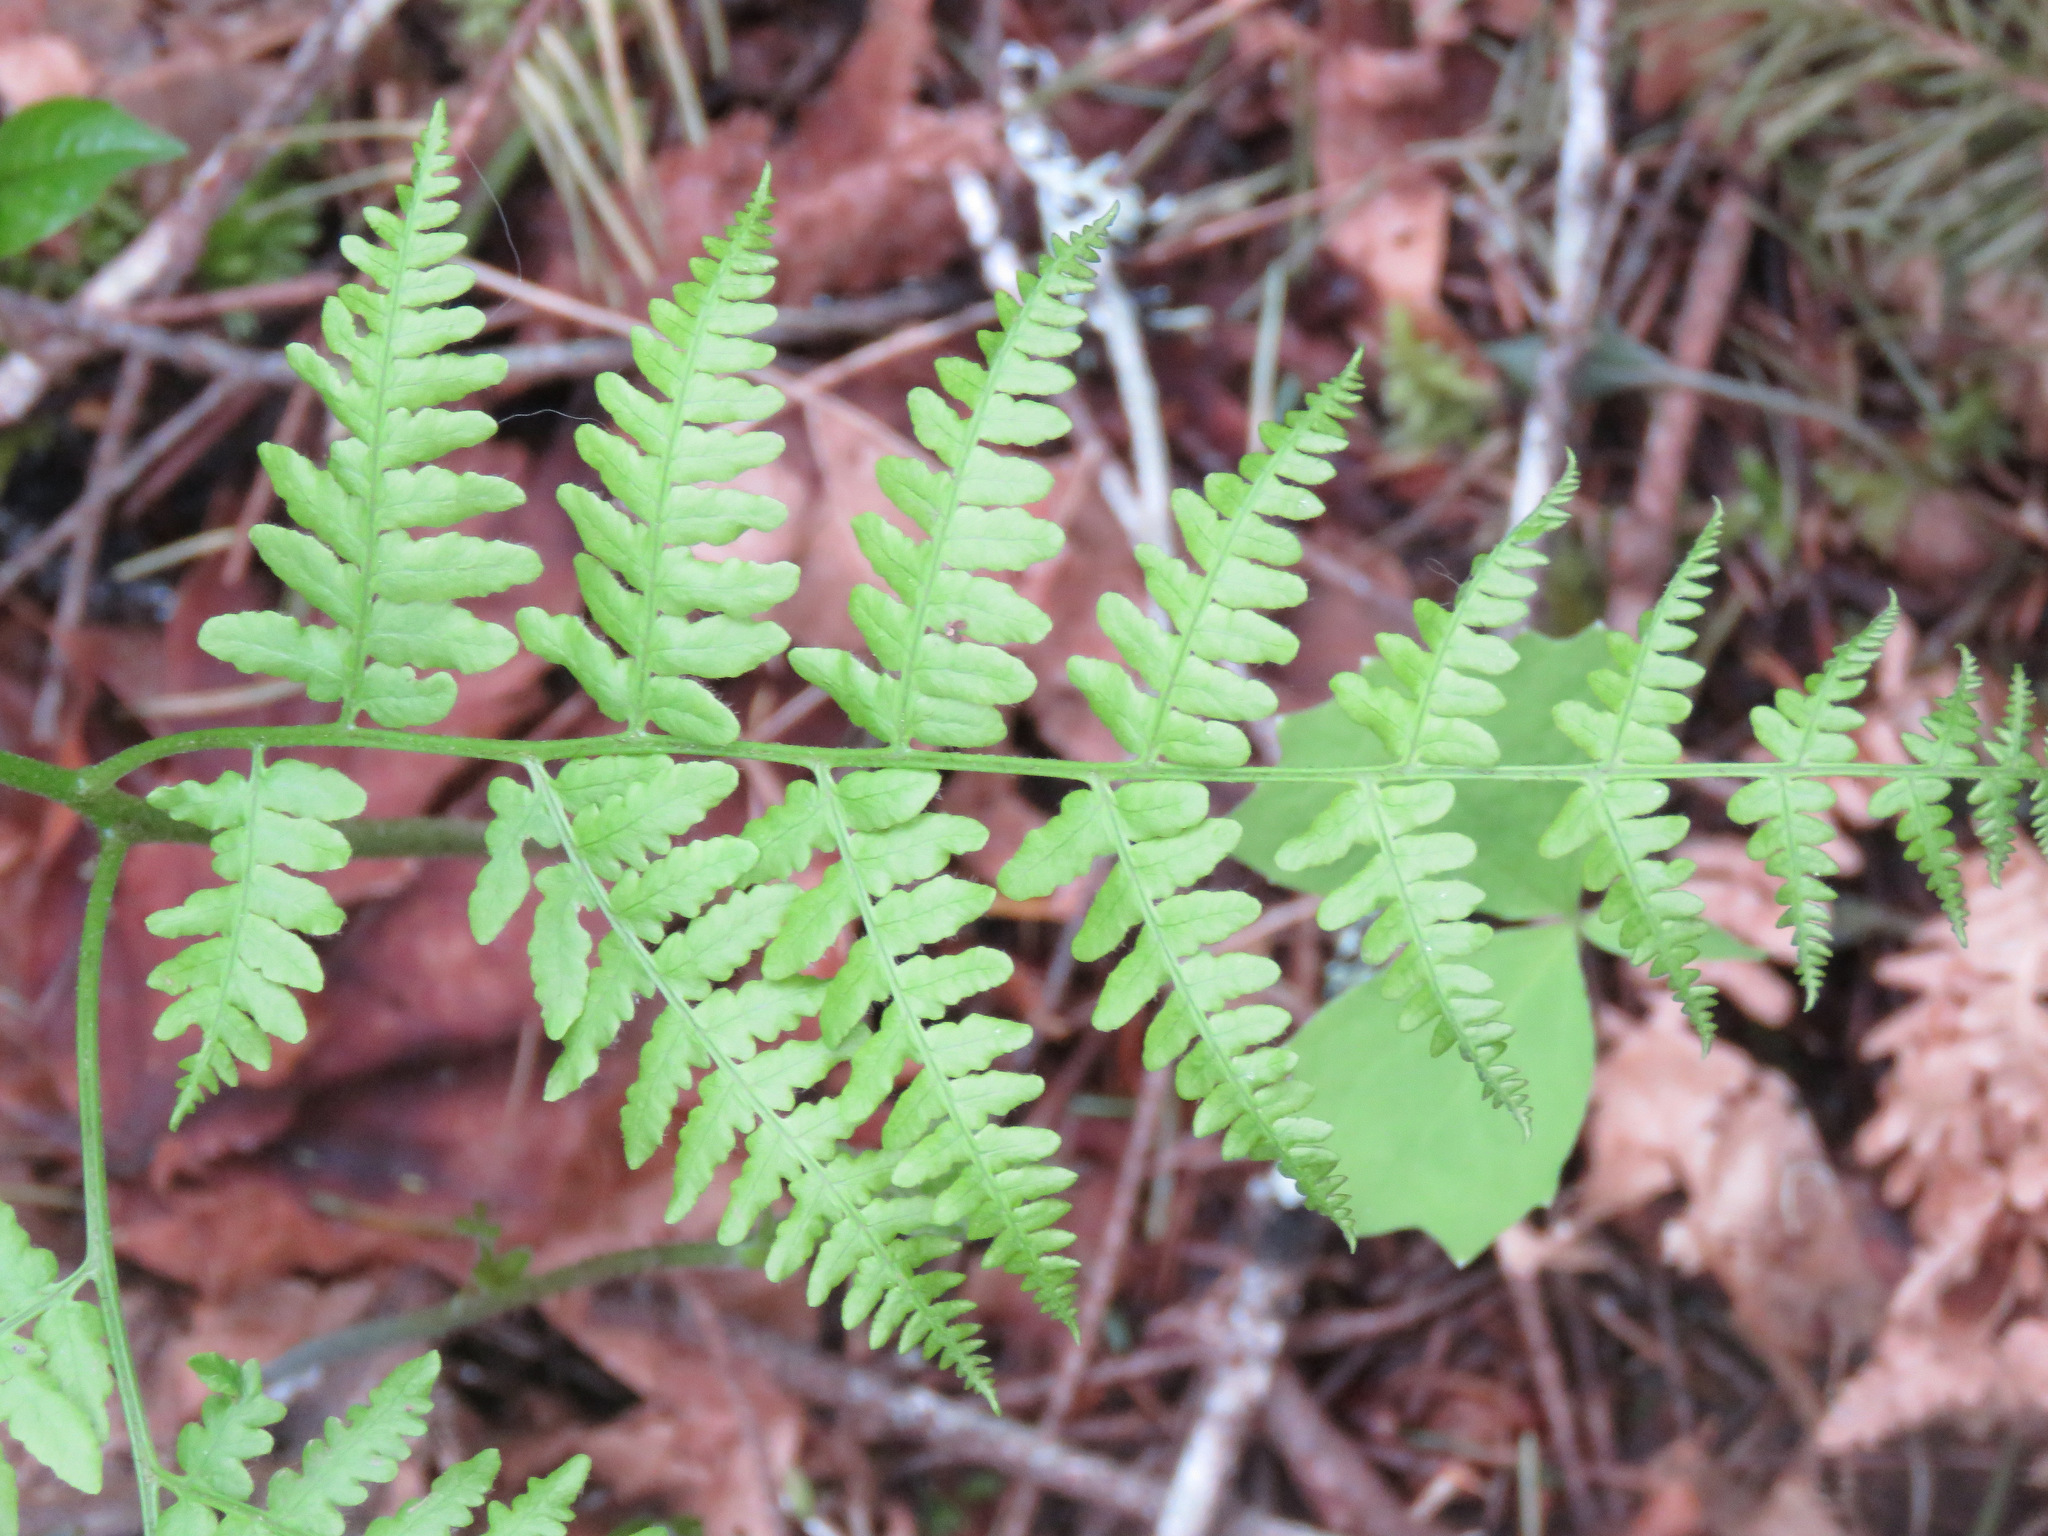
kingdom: Plantae
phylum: Tracheophyta
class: Polypodiopsida
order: Polypodiales
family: Dennstaedtiaceae
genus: Pteridium
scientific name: Pteridium aquilinum
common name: Bracken
